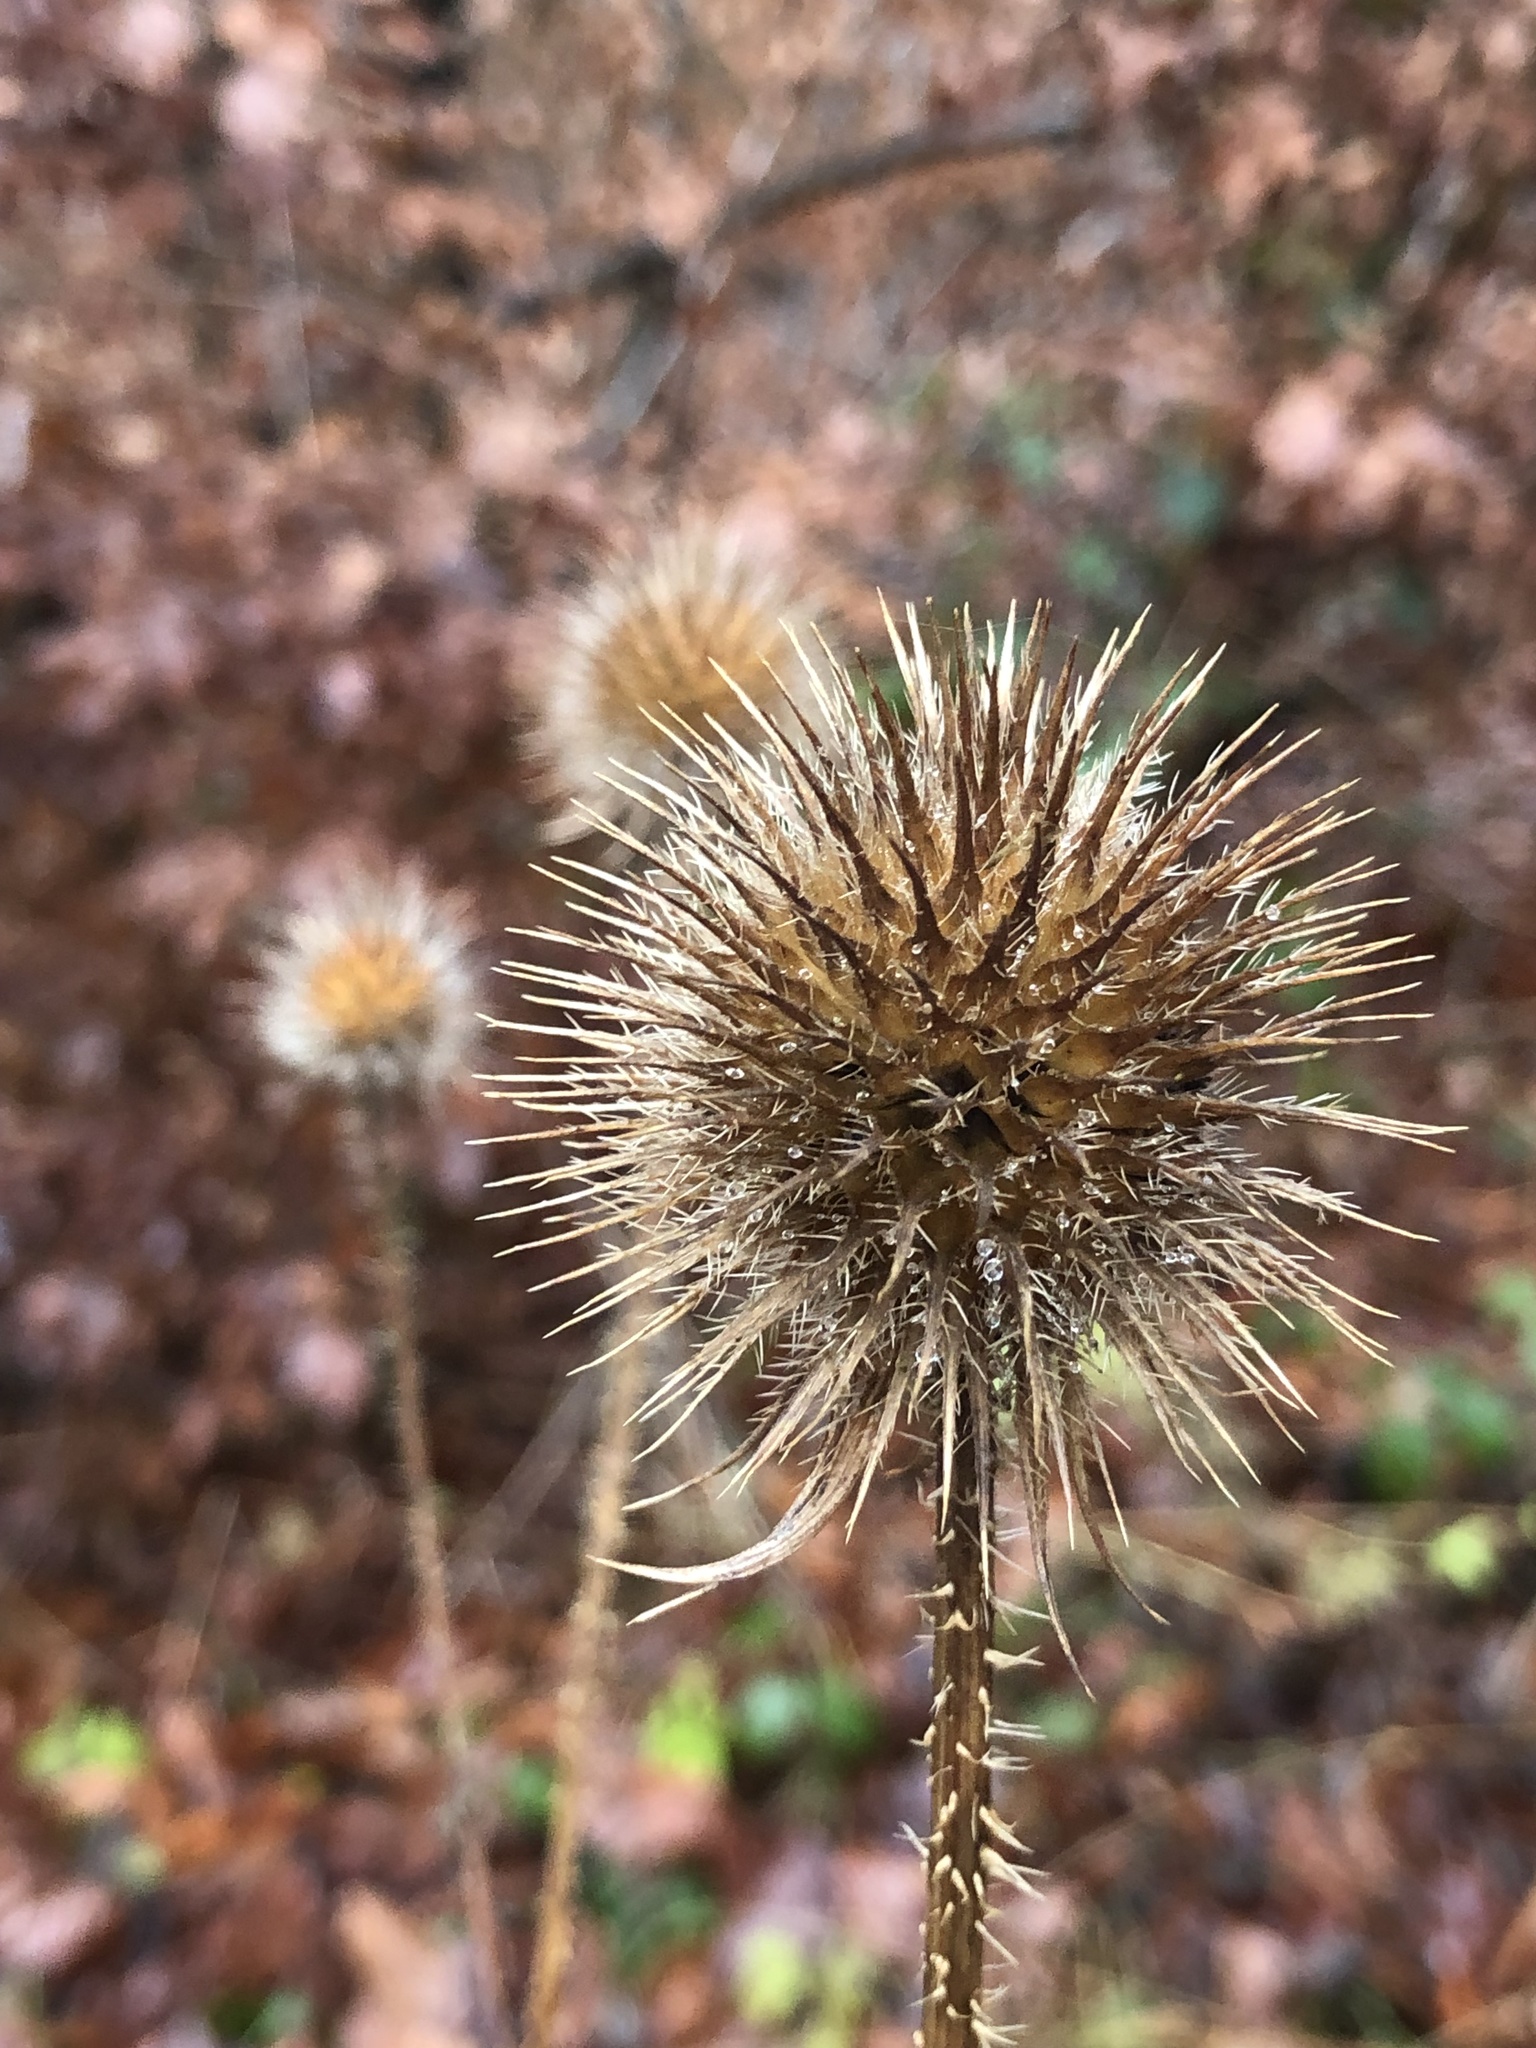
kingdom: Plantae
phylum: Tracheophyta
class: Magnoliopsida
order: Dipsacales
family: Caprifoliaceae
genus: Dipsacus
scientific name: Dipsacus strigosus
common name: Yellow-flowered teasel
